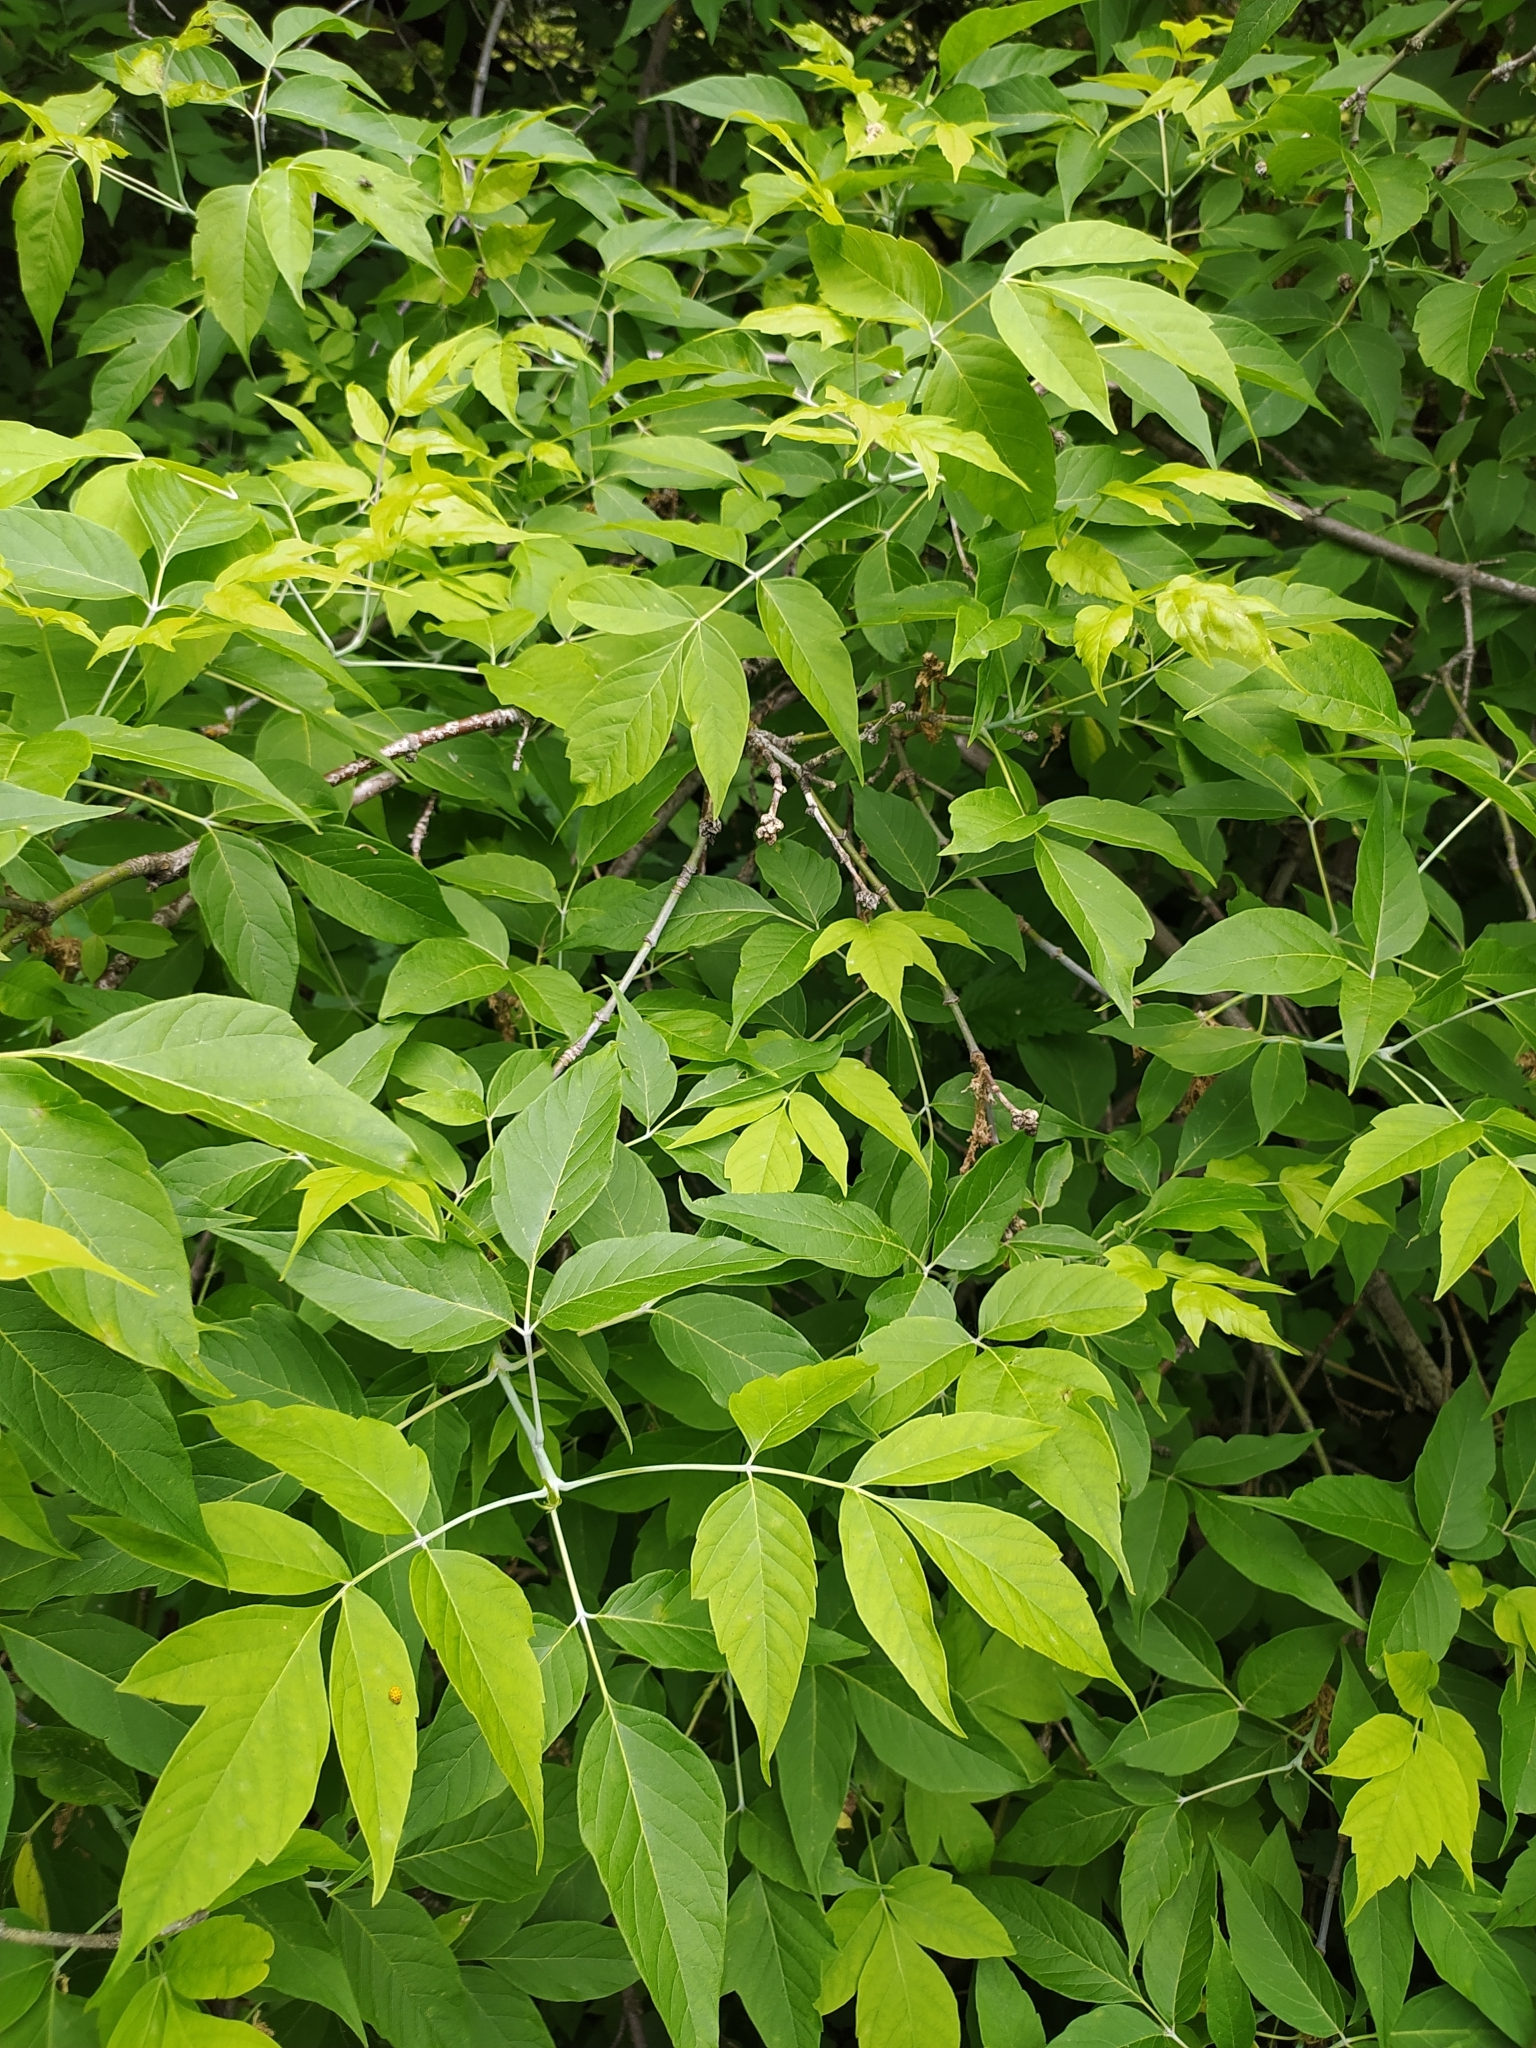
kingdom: Plantae
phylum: Tracheophyta
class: Magnoliopsida
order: Sapindales
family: Sapindaceae
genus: Acer
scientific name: Acer negundo
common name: Ashleaf maple
